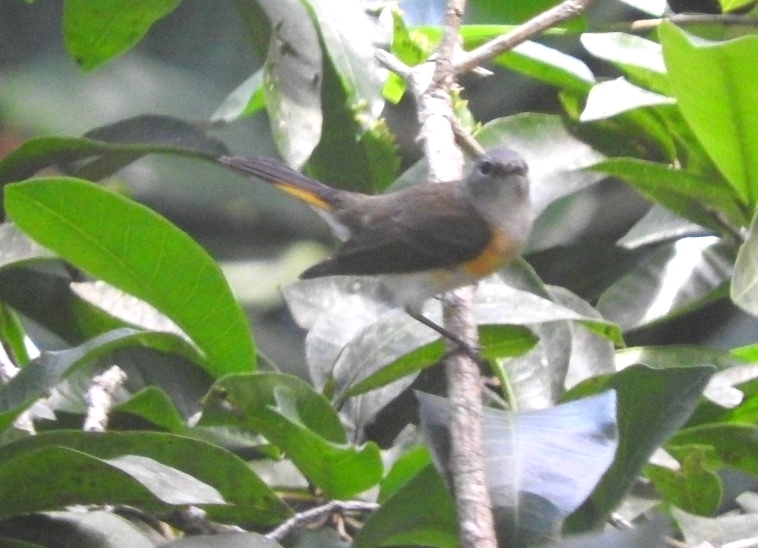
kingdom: Animalia
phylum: Chordata
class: Aves
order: Passeriformes
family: Parulidae
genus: Setophaga
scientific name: Setophaga ruticilla
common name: American redstart
